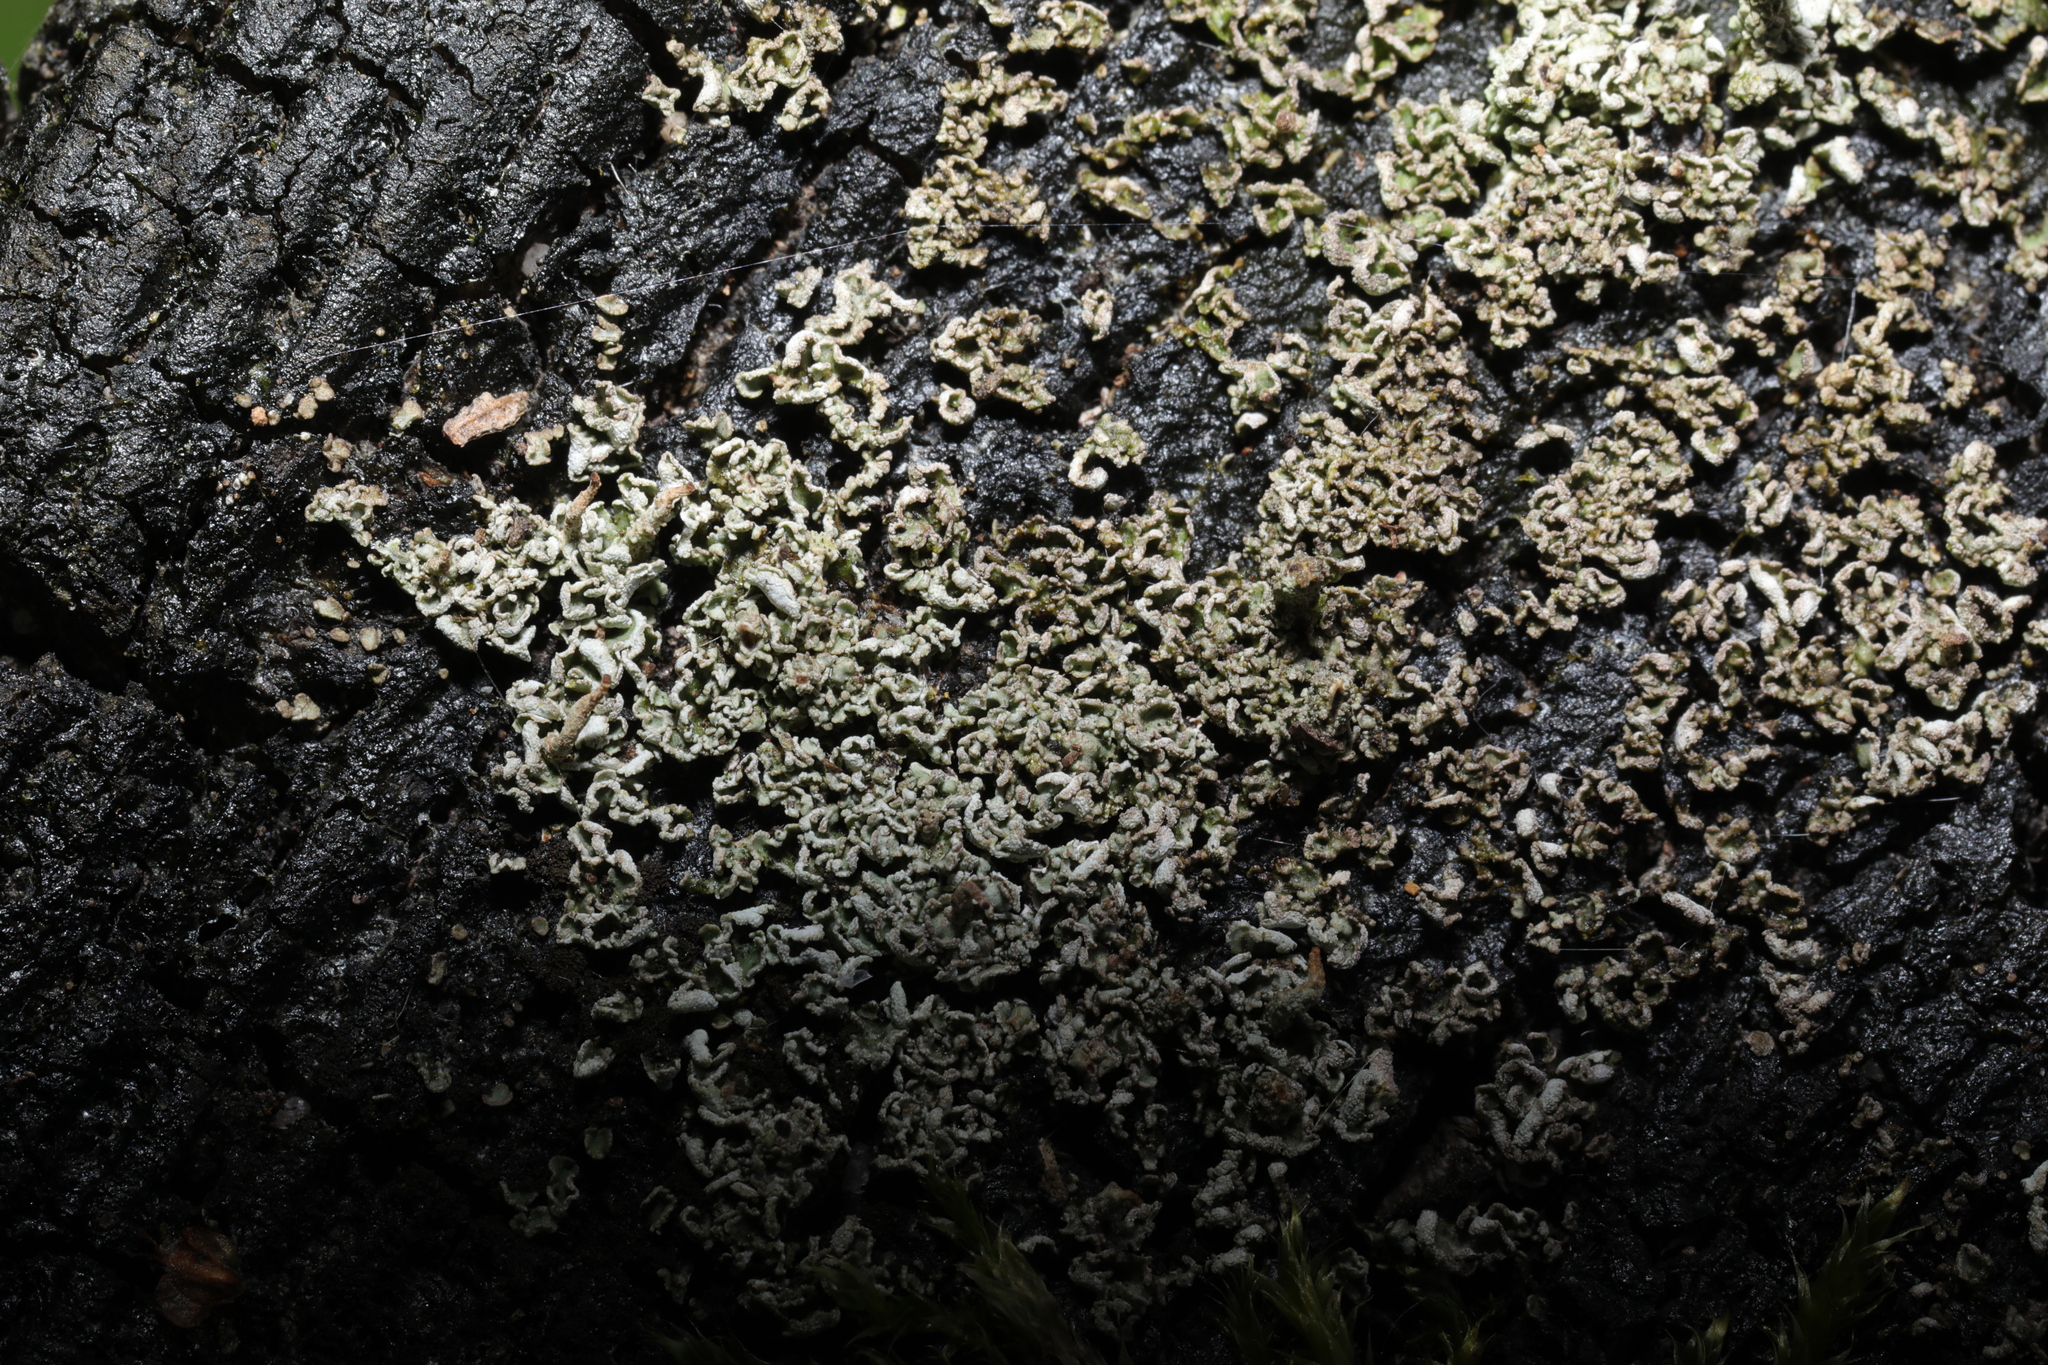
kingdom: Fungi
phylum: Ascomycota
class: Lecanoromycetes
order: Lecanorales
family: Cladoniaceae
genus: Cladonia
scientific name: Cladonia
